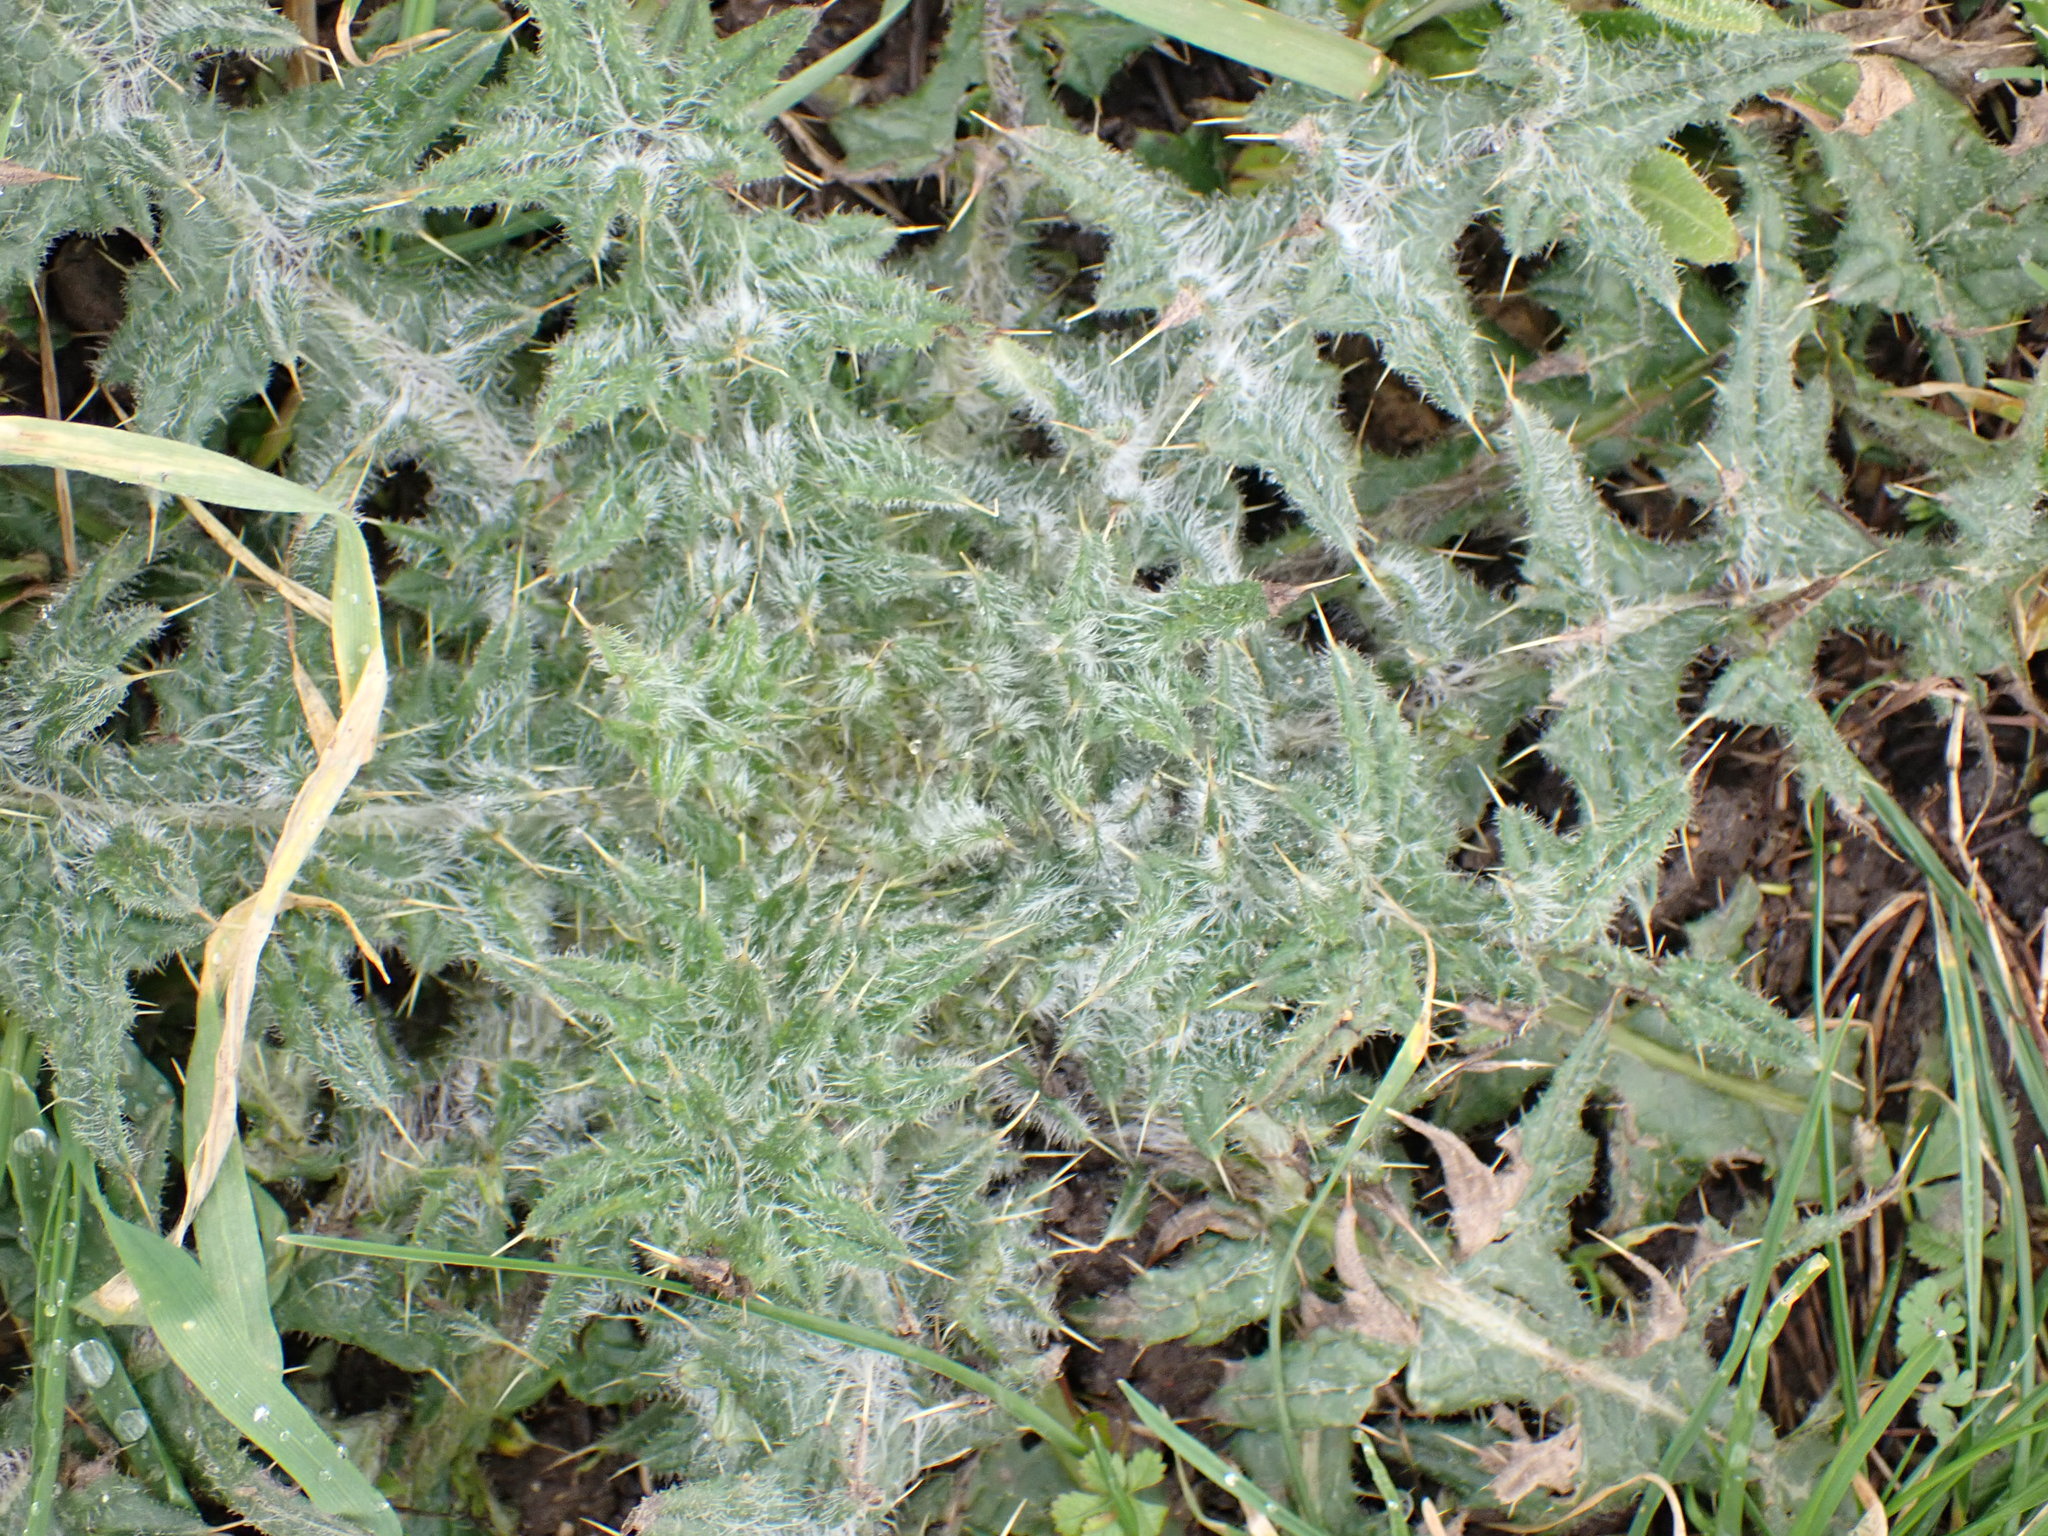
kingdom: Plantae
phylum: Tracheophyta
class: Magnoliopsida
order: Asterales
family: Asteraceae
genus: Cirsium
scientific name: Cirsium vulgare
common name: Bull thistle
